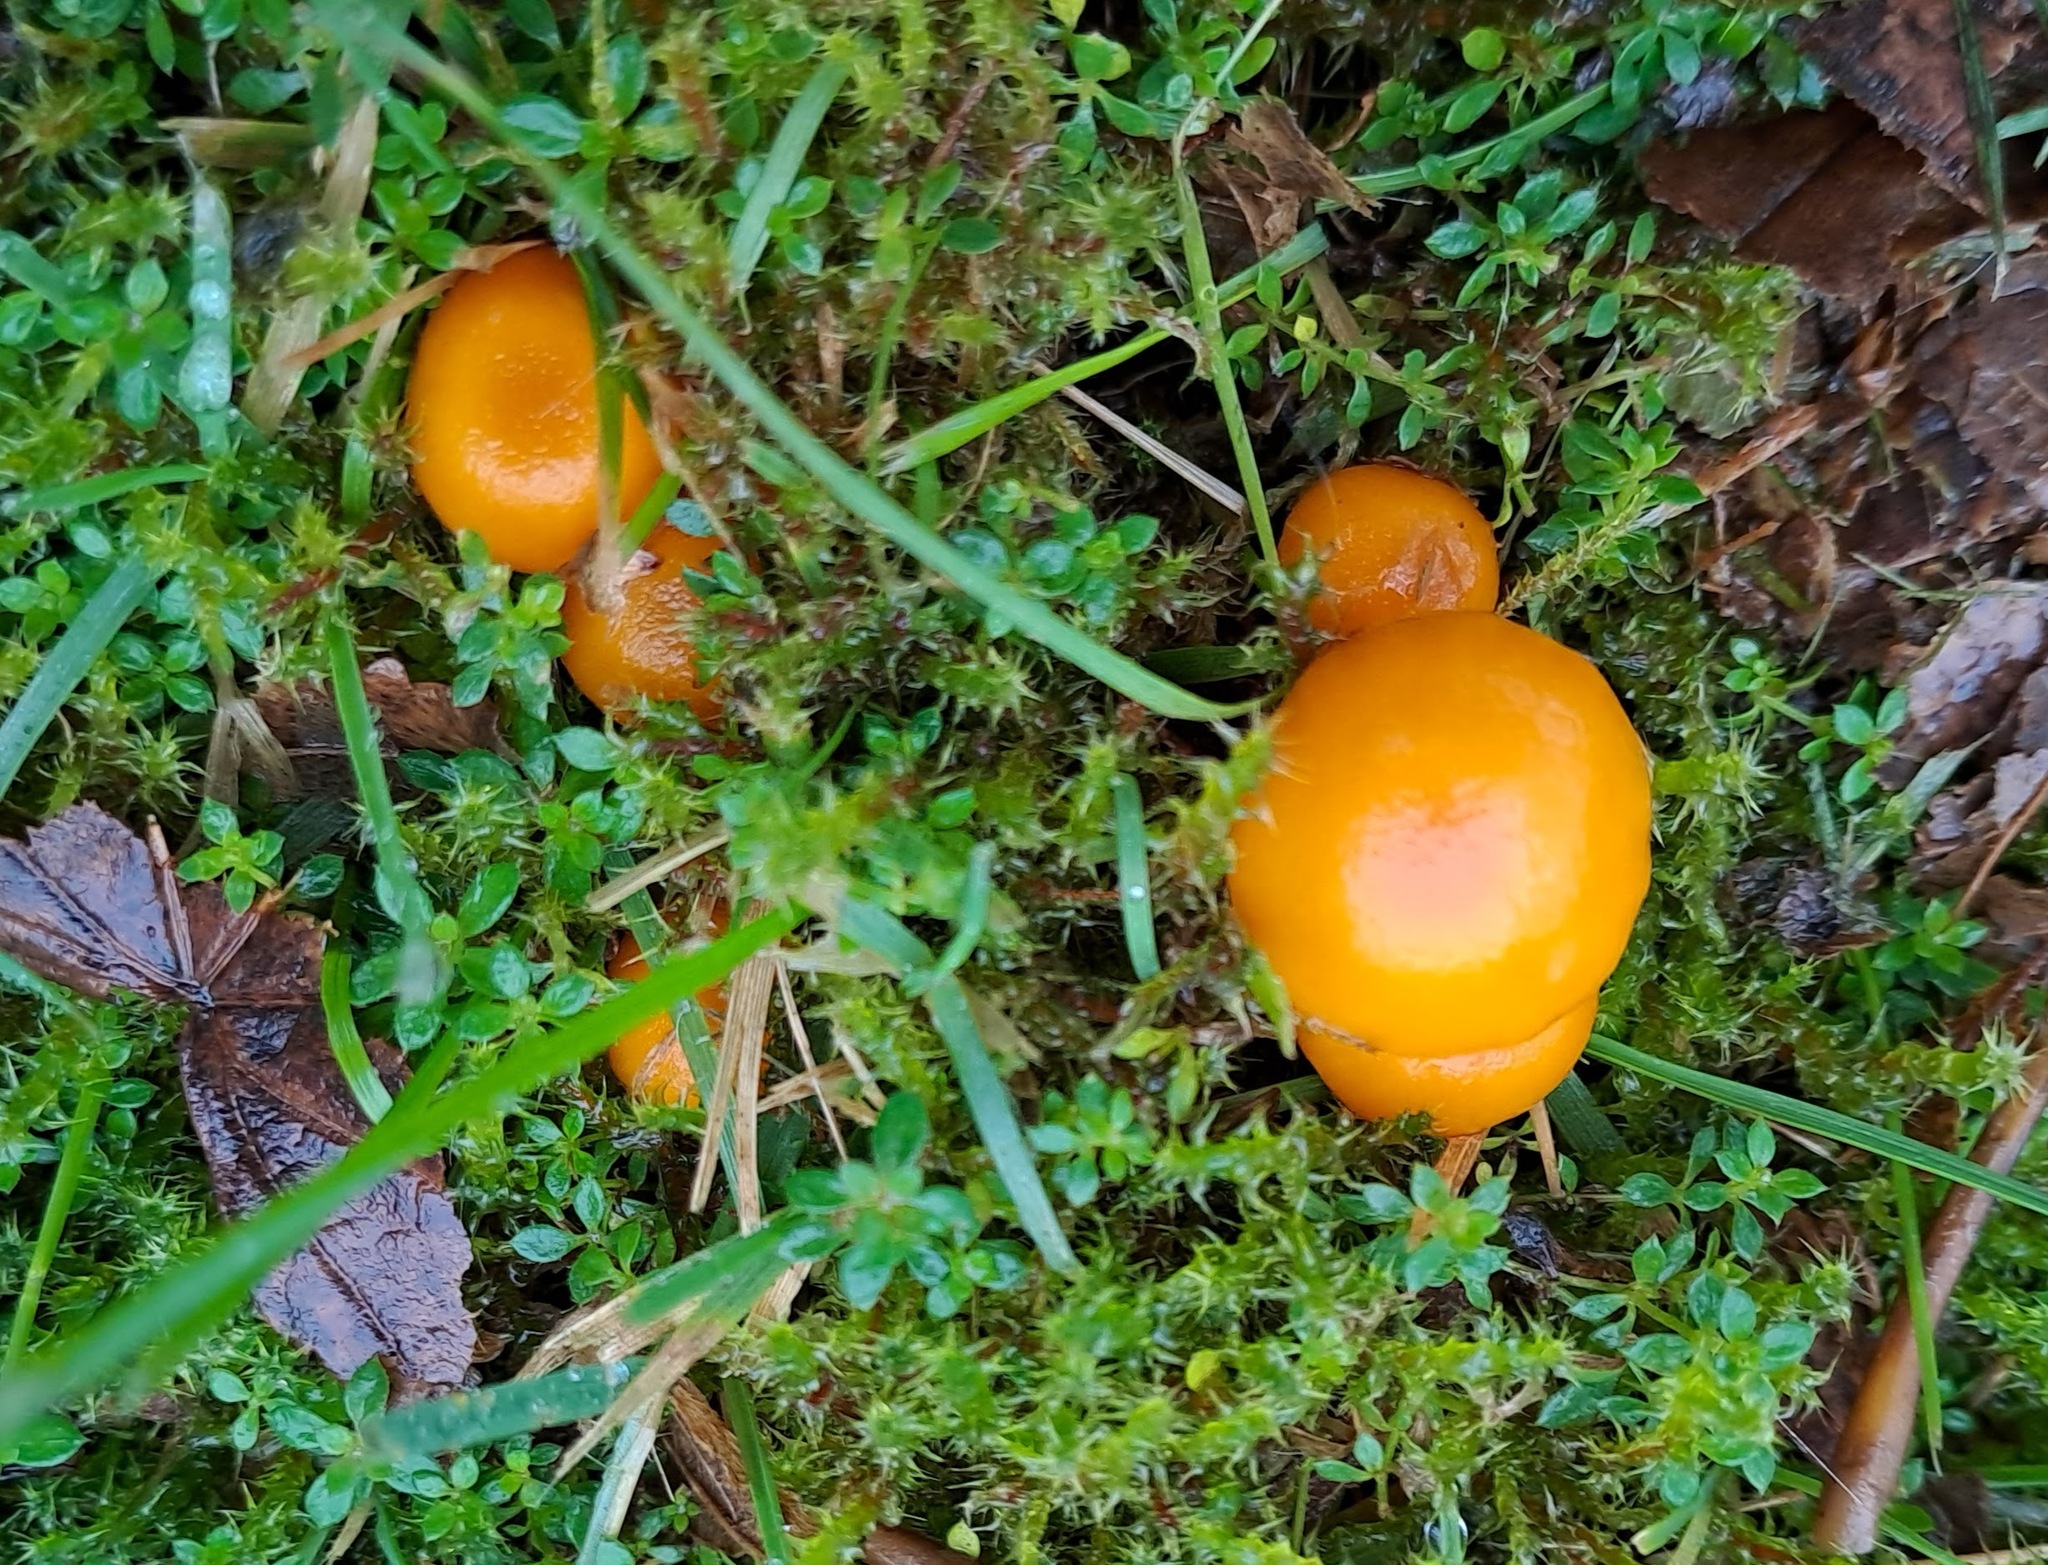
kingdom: Fungi
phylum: Basidiomycota
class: Agaricomycetes
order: Agaricales
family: Hygrophoraceae
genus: Hygrocybe
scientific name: Hygrocybe ceracea
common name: Butter waxcap
